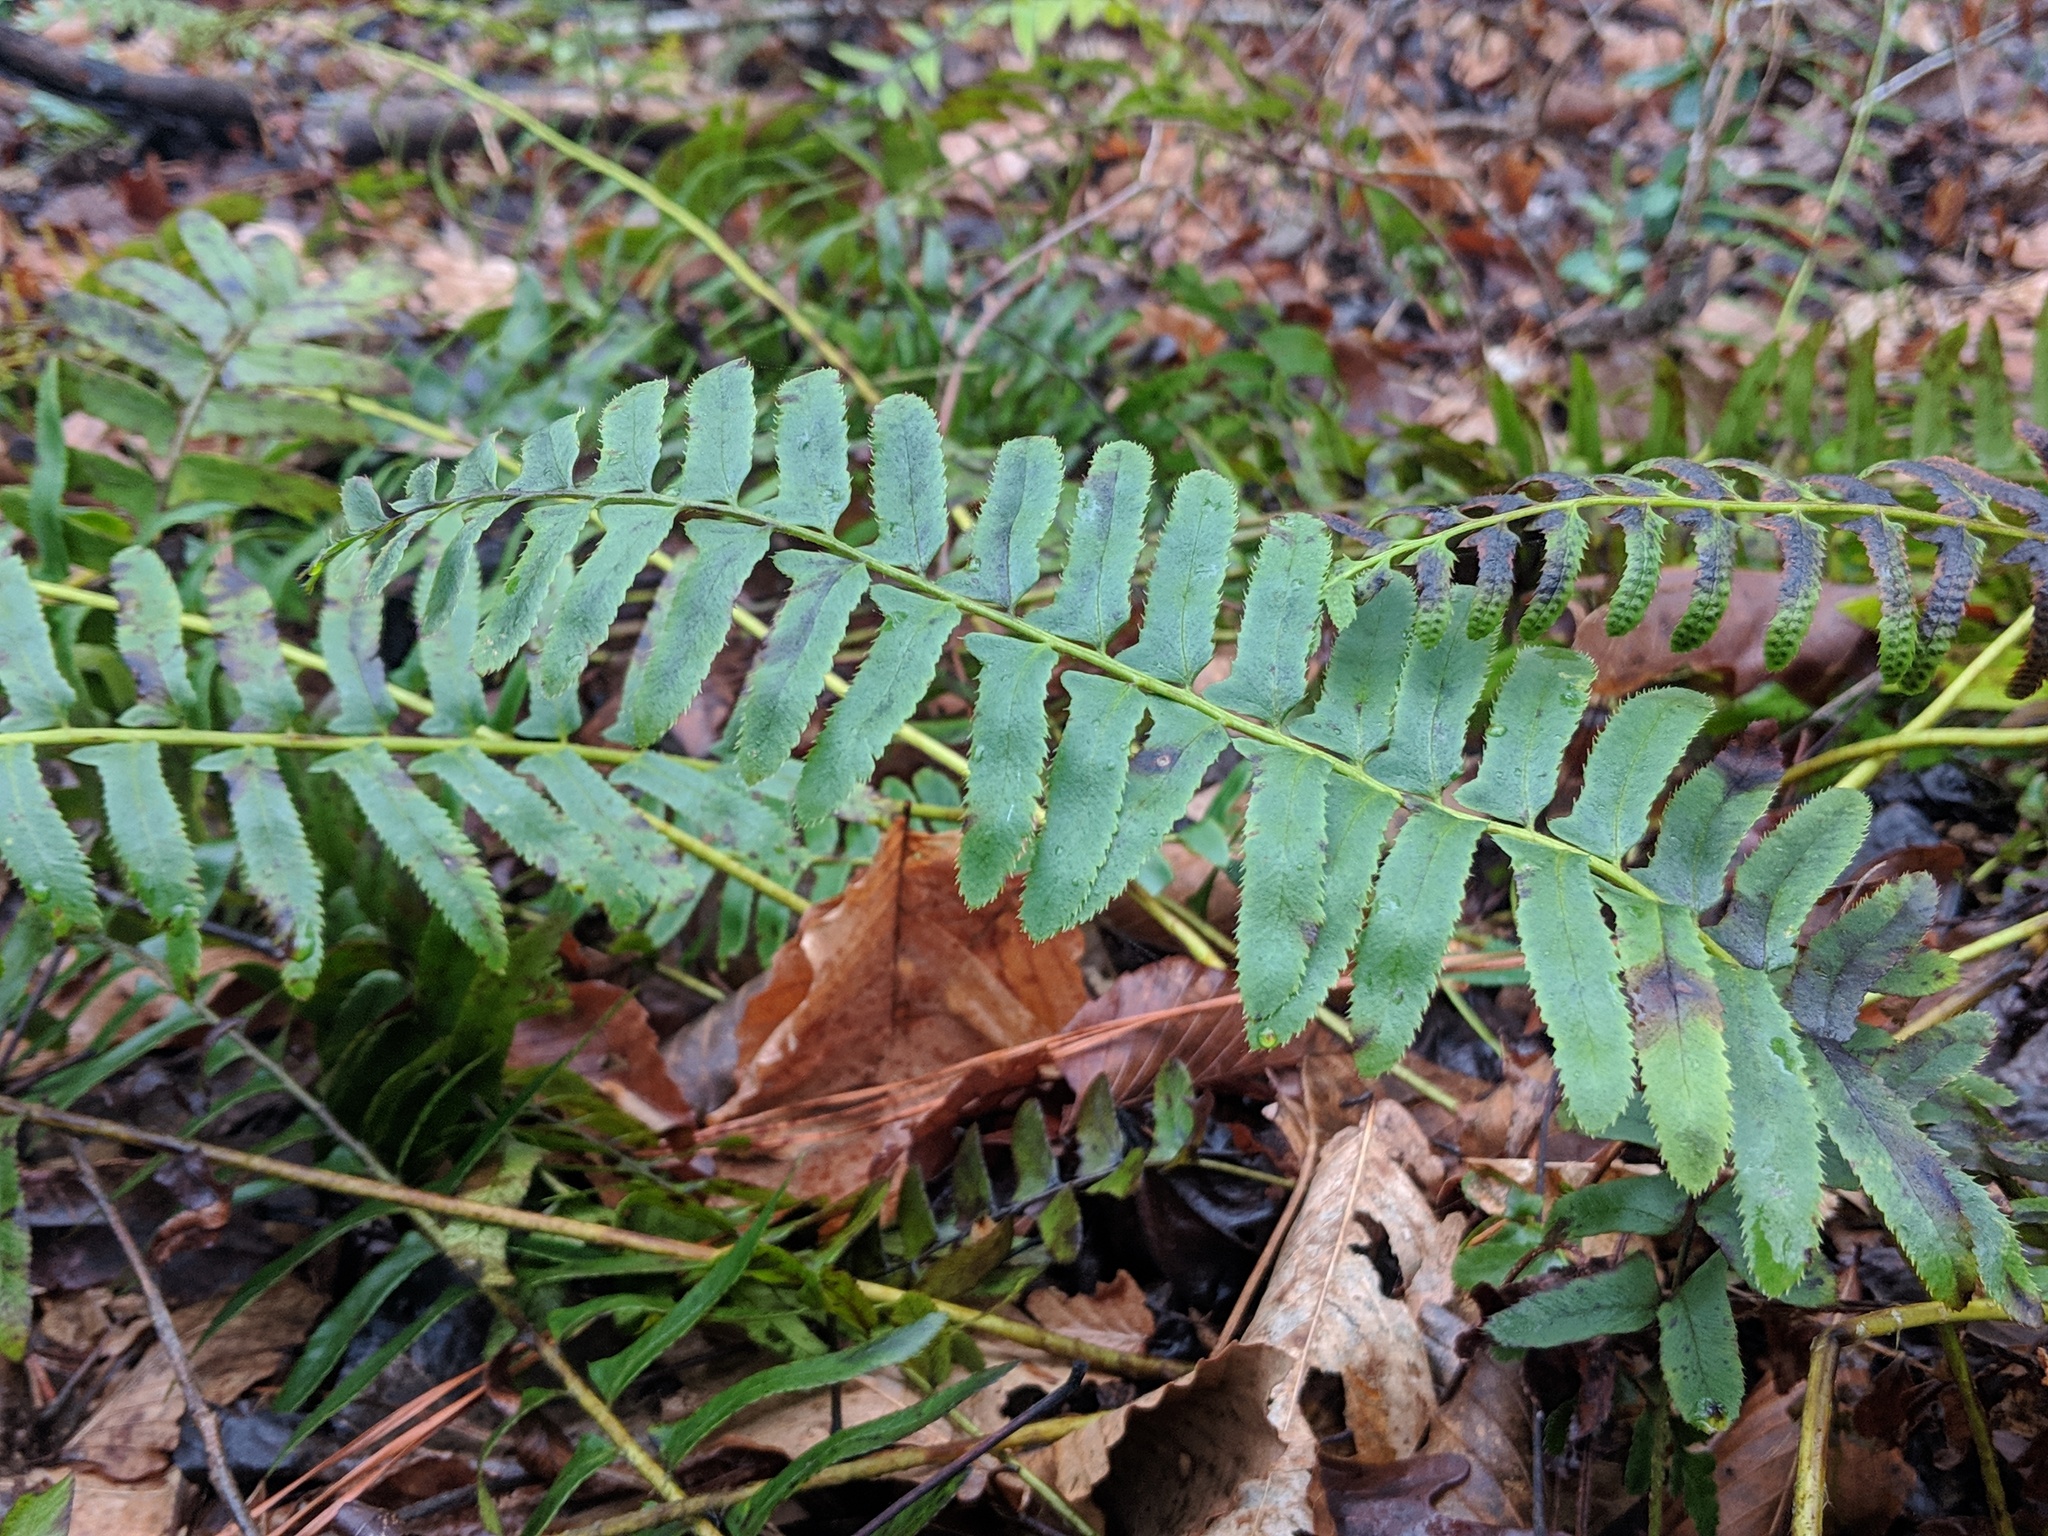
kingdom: Plantae
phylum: Tracheophyta
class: Polypodiopsida
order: Polypodiales
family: Dryopteridaceae
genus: Polystichum
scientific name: Polystichum acrostichoides
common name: Christmas fern
